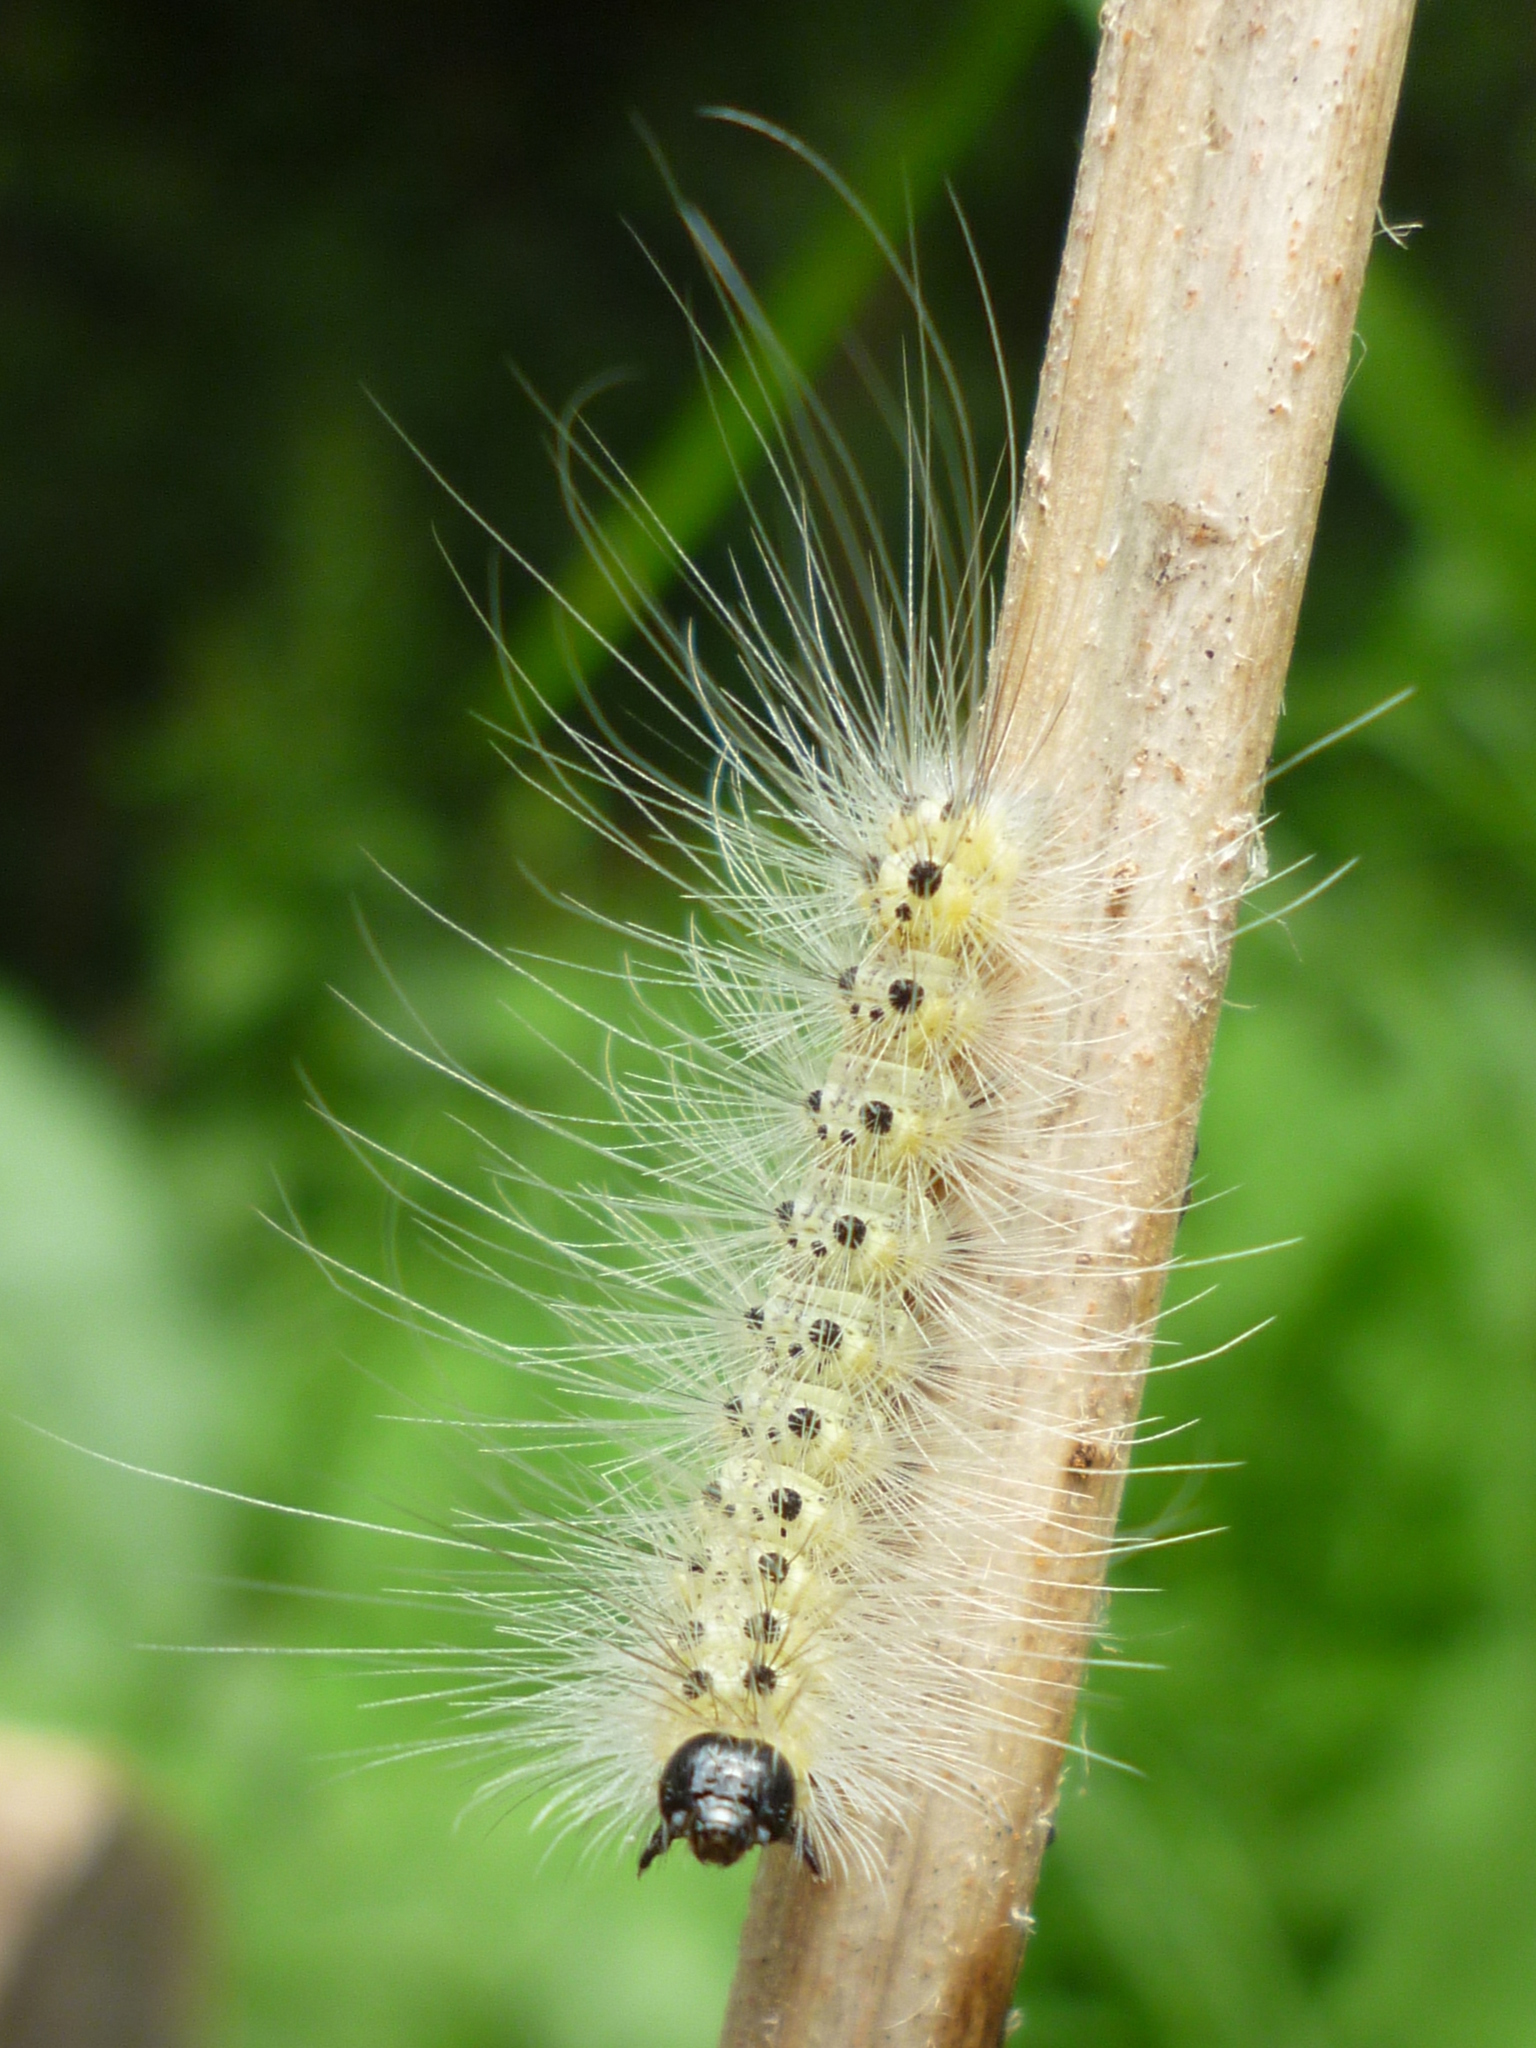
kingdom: Animalia
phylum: Arthropoda
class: Insecta
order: Lepidoptera
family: Erebidae
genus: Hyphantria
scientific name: Hyphantria cunea
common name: American white moth
